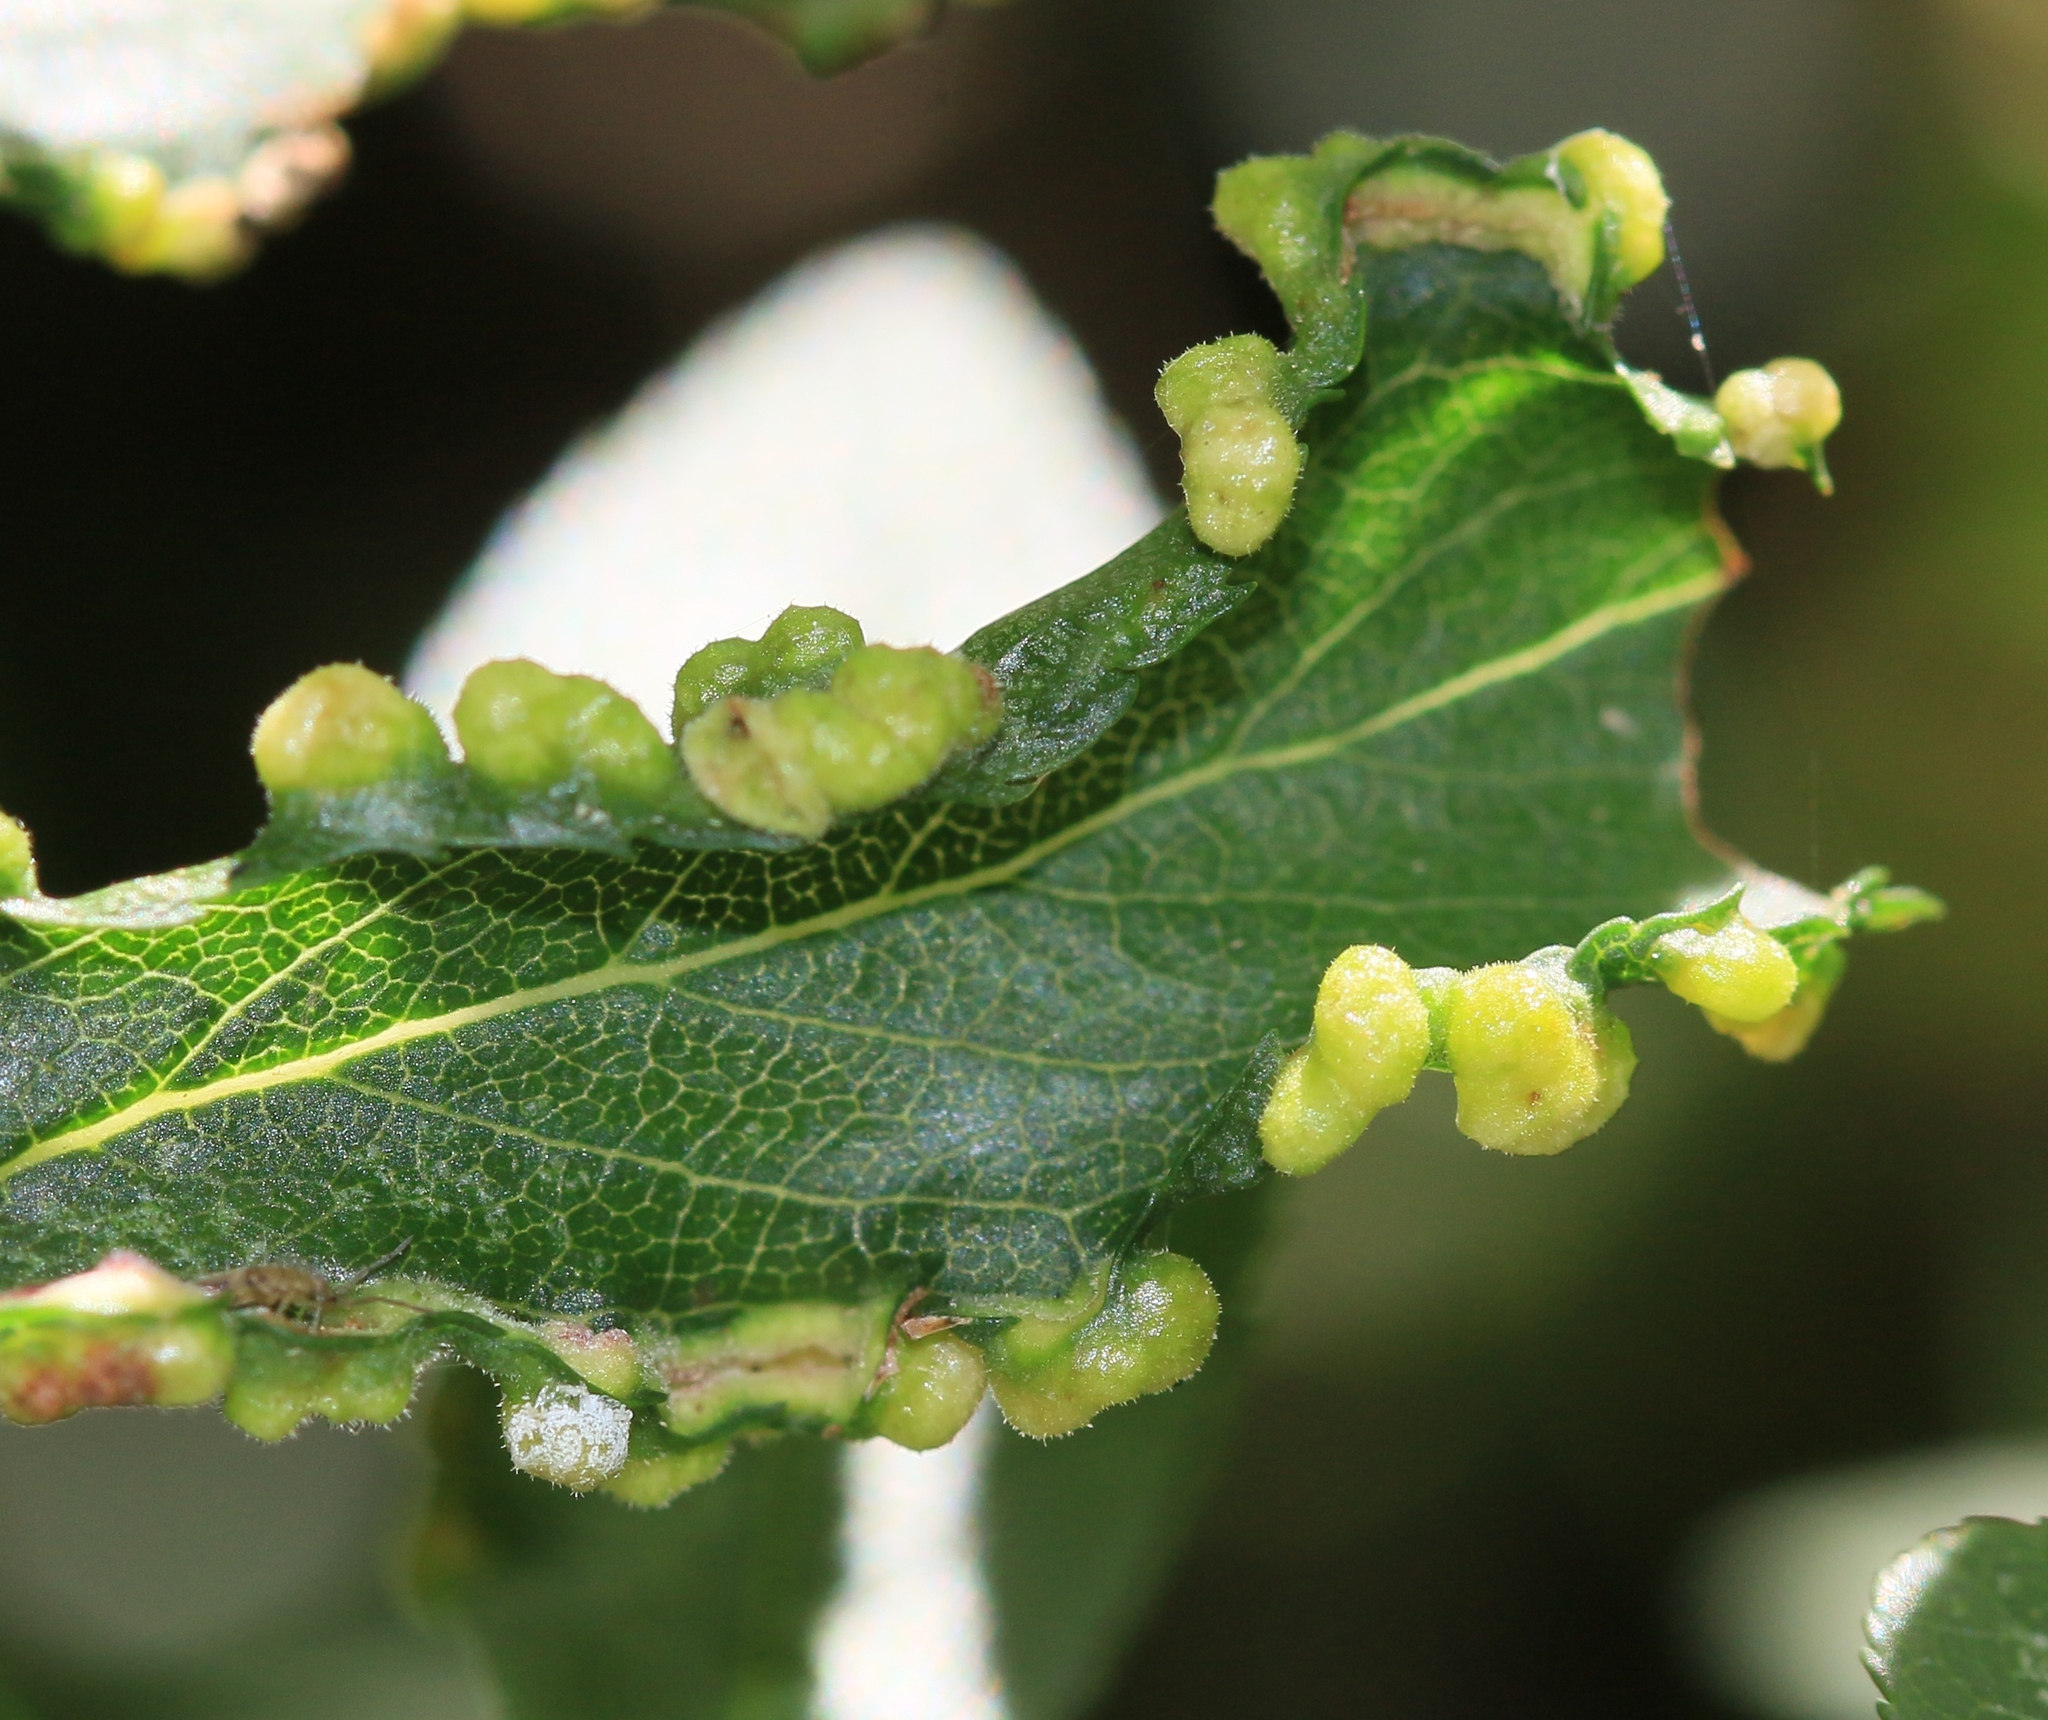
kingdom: Animalia
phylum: Arthropoda
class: Arachnida
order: Trombidiformes
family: Eriophyidae
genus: Eriophyes
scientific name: Eriophyes similis
